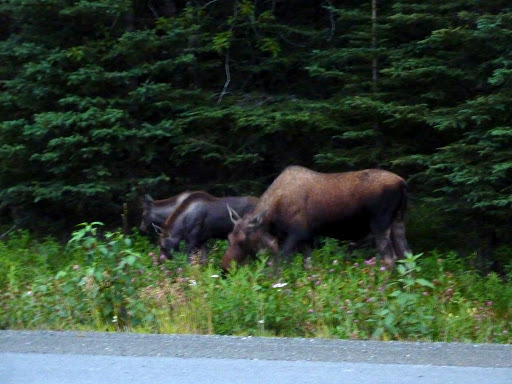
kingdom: Animalia
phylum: Chordata
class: Mammalia
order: Artiodactyla
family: Cervidae
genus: Alces
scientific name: Alces alces
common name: Moose
